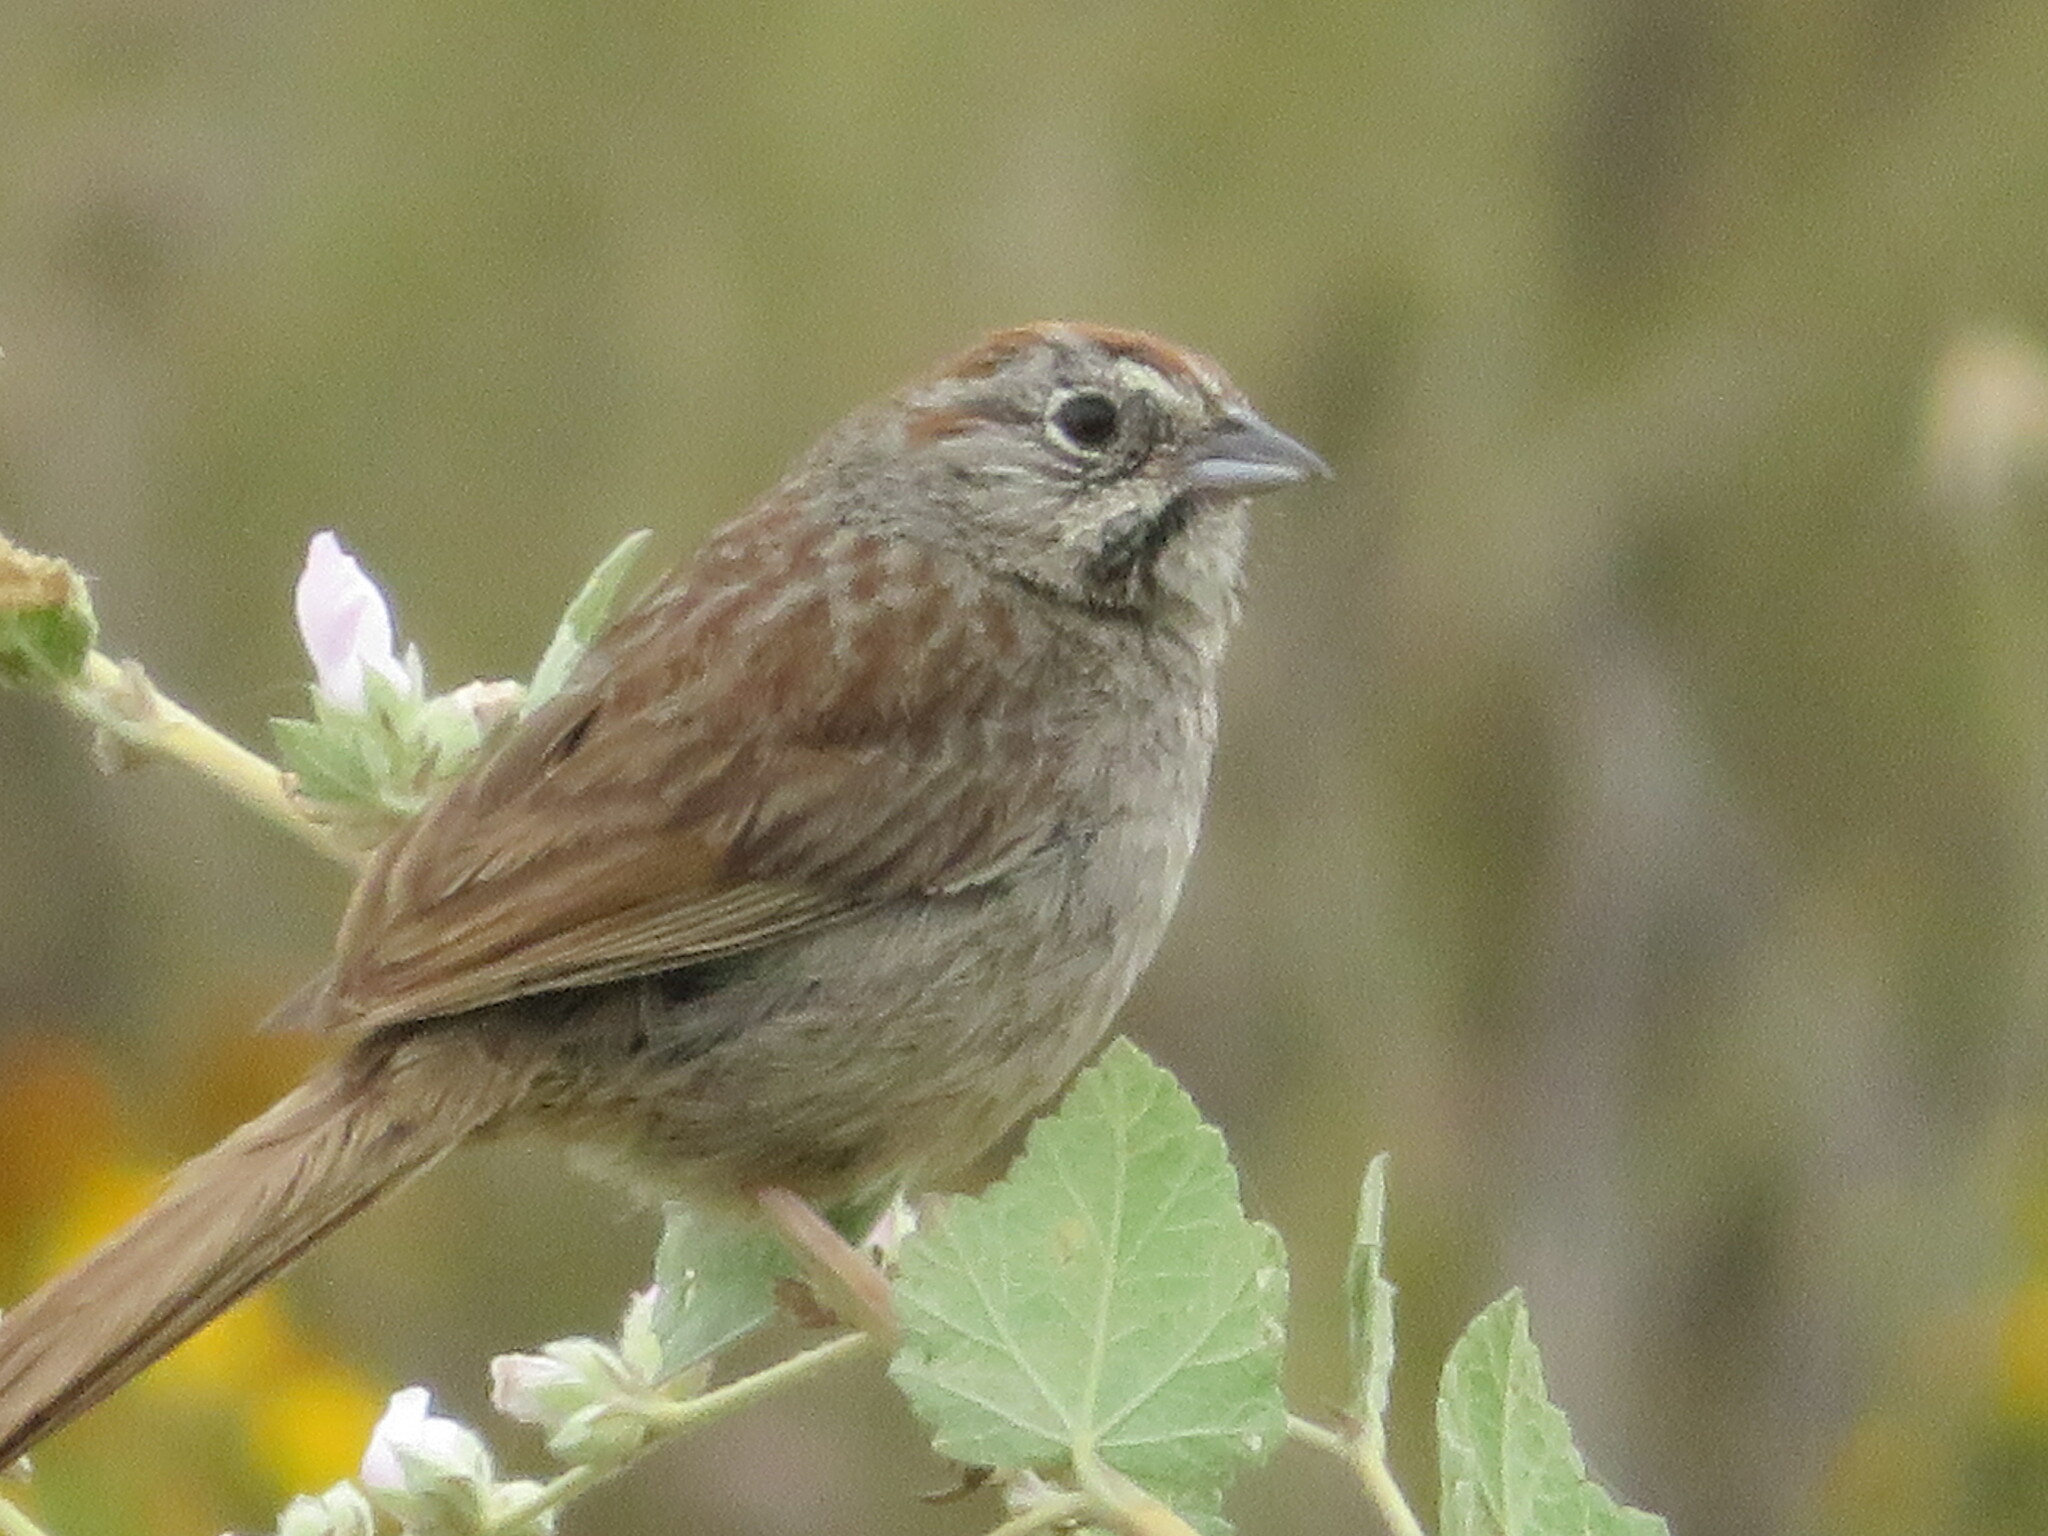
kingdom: Animalia
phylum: Chordata
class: Aves
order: Passeriformes
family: Passerellidae
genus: Aimophila
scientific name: Aimophila ruficeps
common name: Rufous-crowned sparrow
